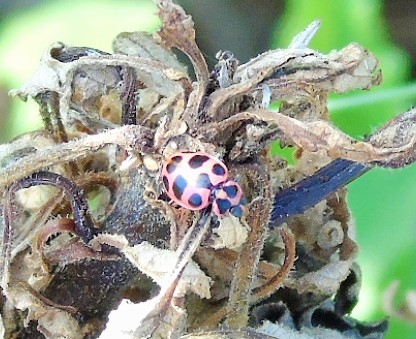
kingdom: Animalia
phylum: Arthropoda
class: Insecta
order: Coleoptera
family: Coccinellidae
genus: Coleomegilla
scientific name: Coleomegilla maculata
